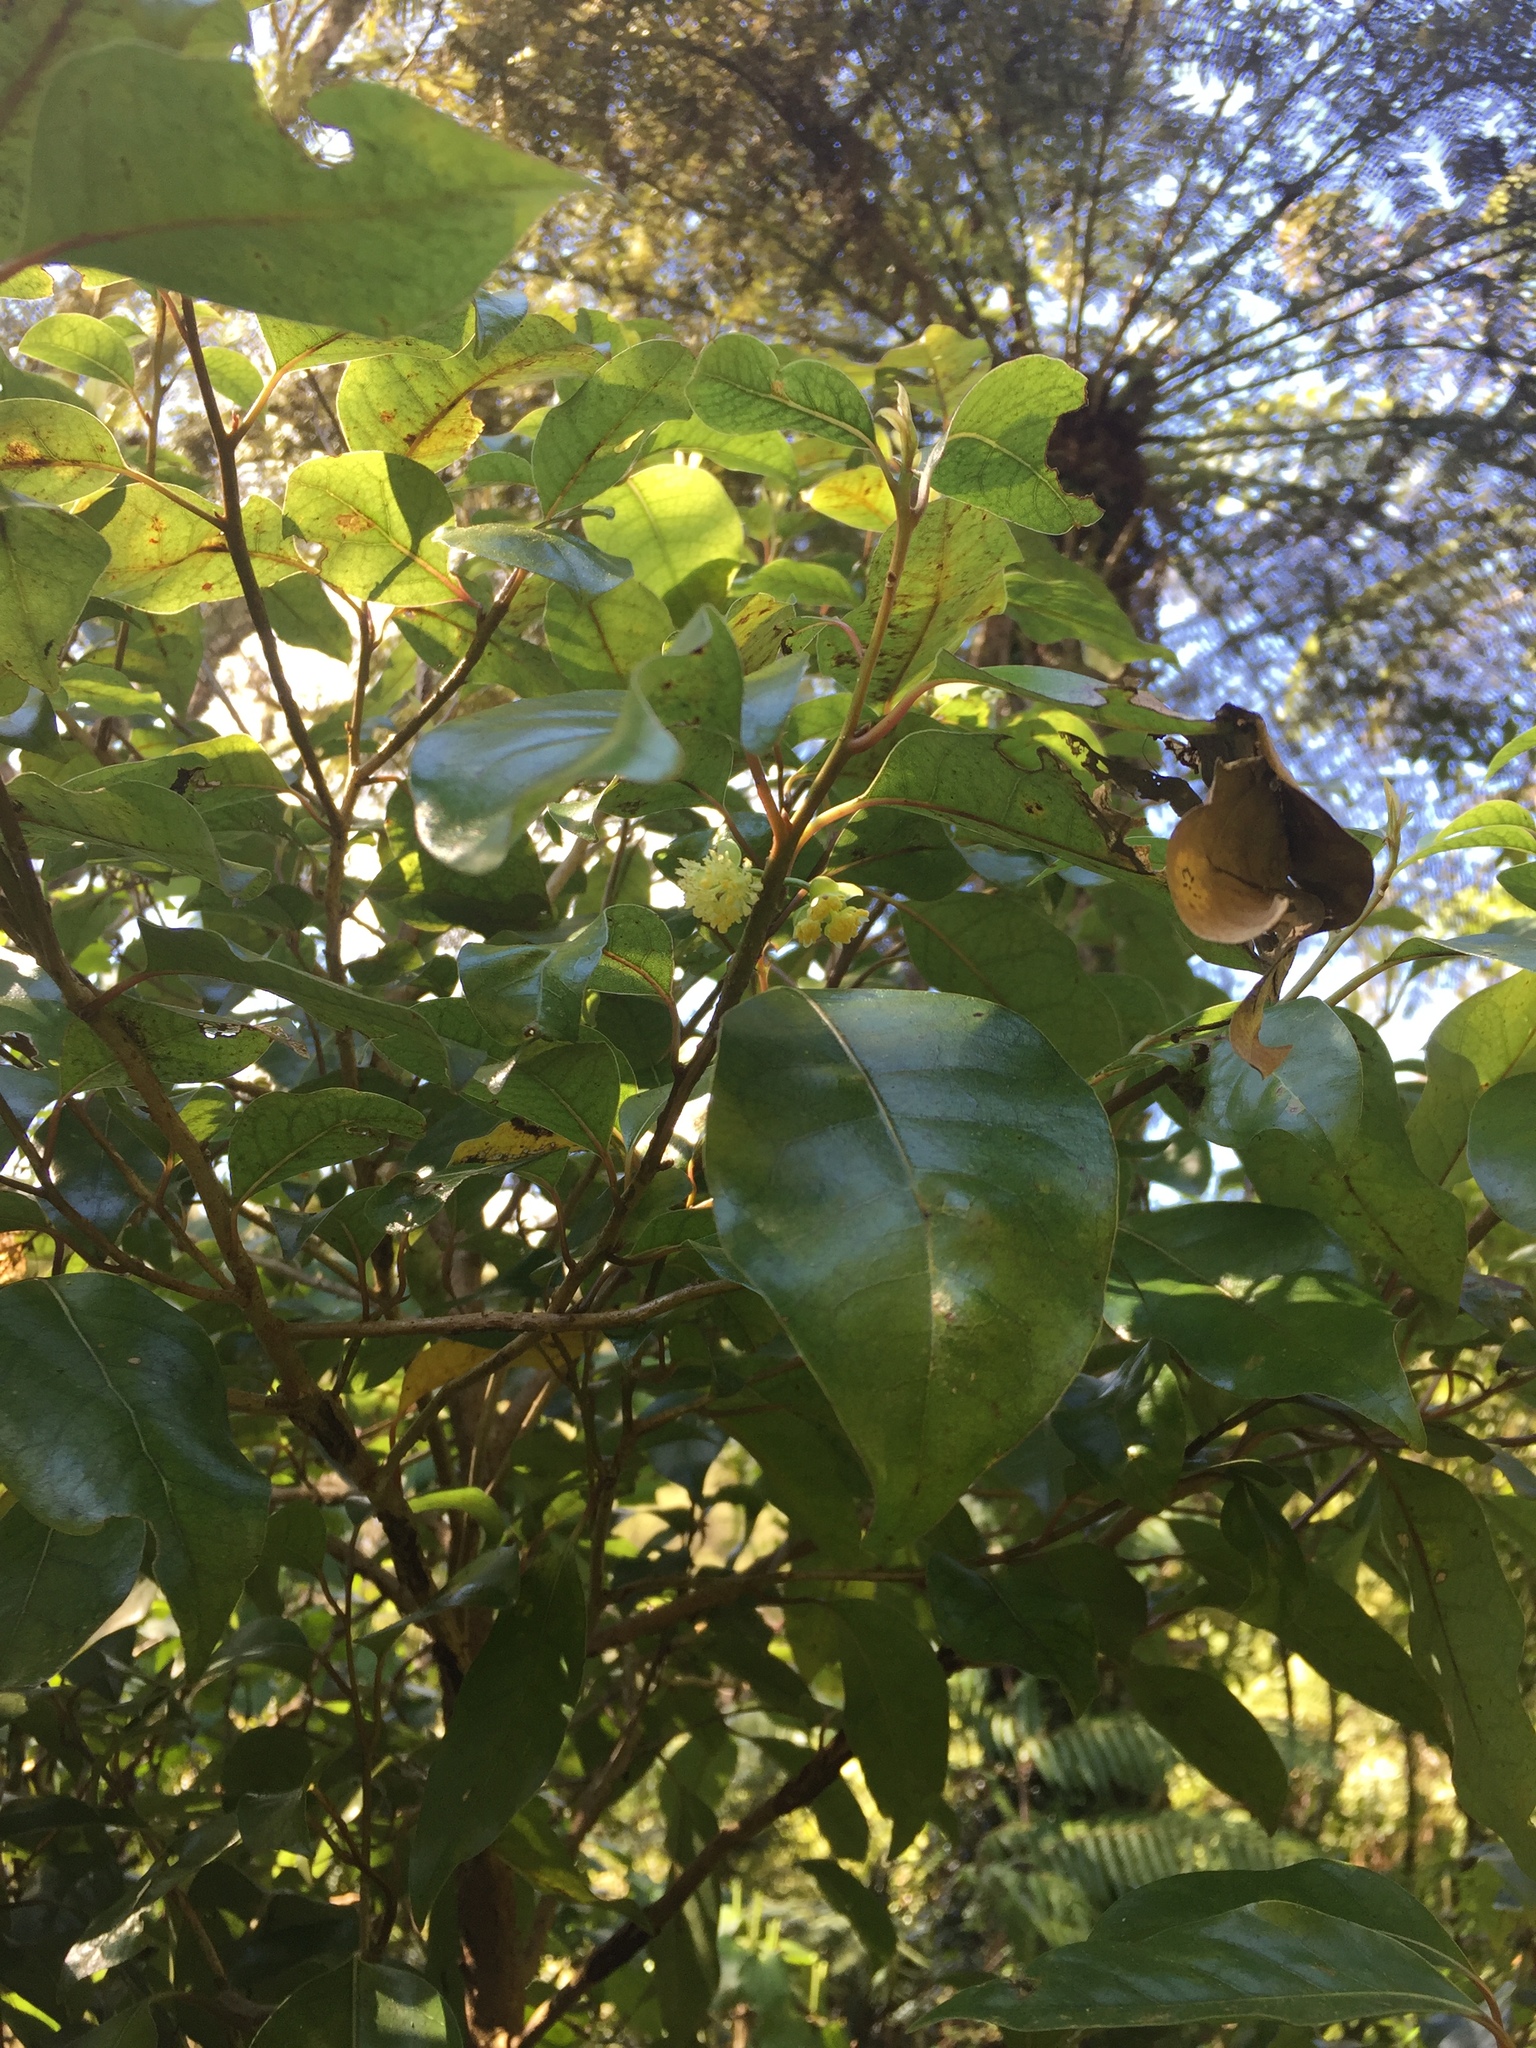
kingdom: Plantae
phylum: Tracheophyta
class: Magnoliopsida
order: Laurales
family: Lauraceae
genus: Litsea
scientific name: Litsea calicaris
